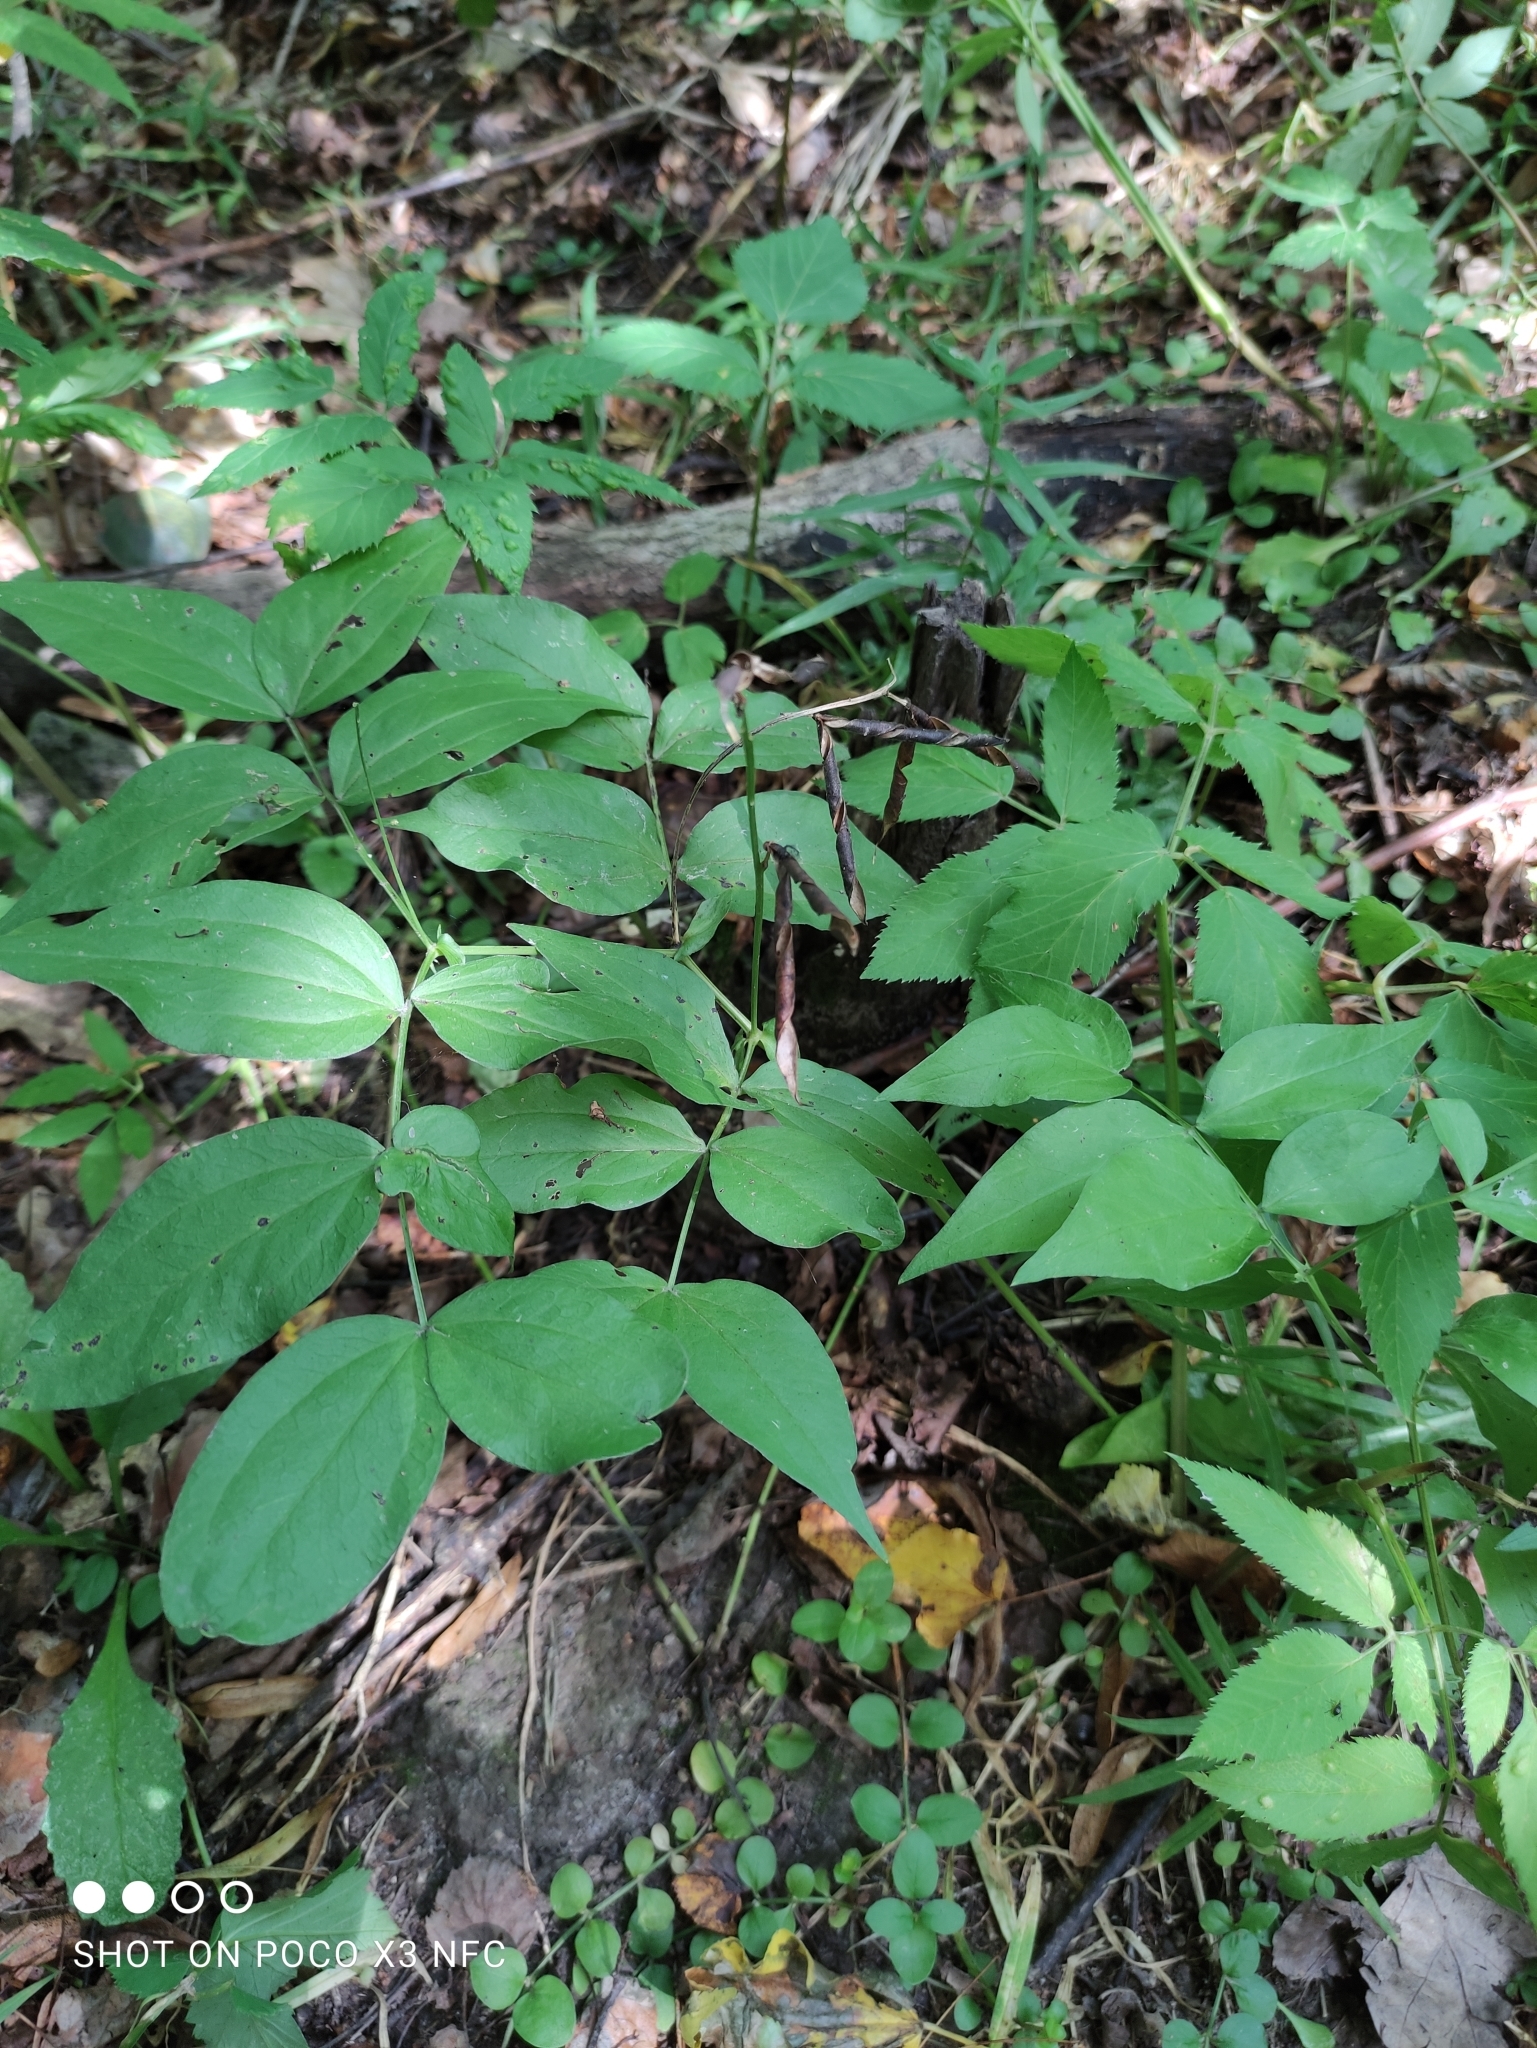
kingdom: Plantae
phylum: Tracheophyta
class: Magnoliopsida
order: Fabales
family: Fabaceae
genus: Lathyrus
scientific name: Lathyrus vernus
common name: Spring pea
